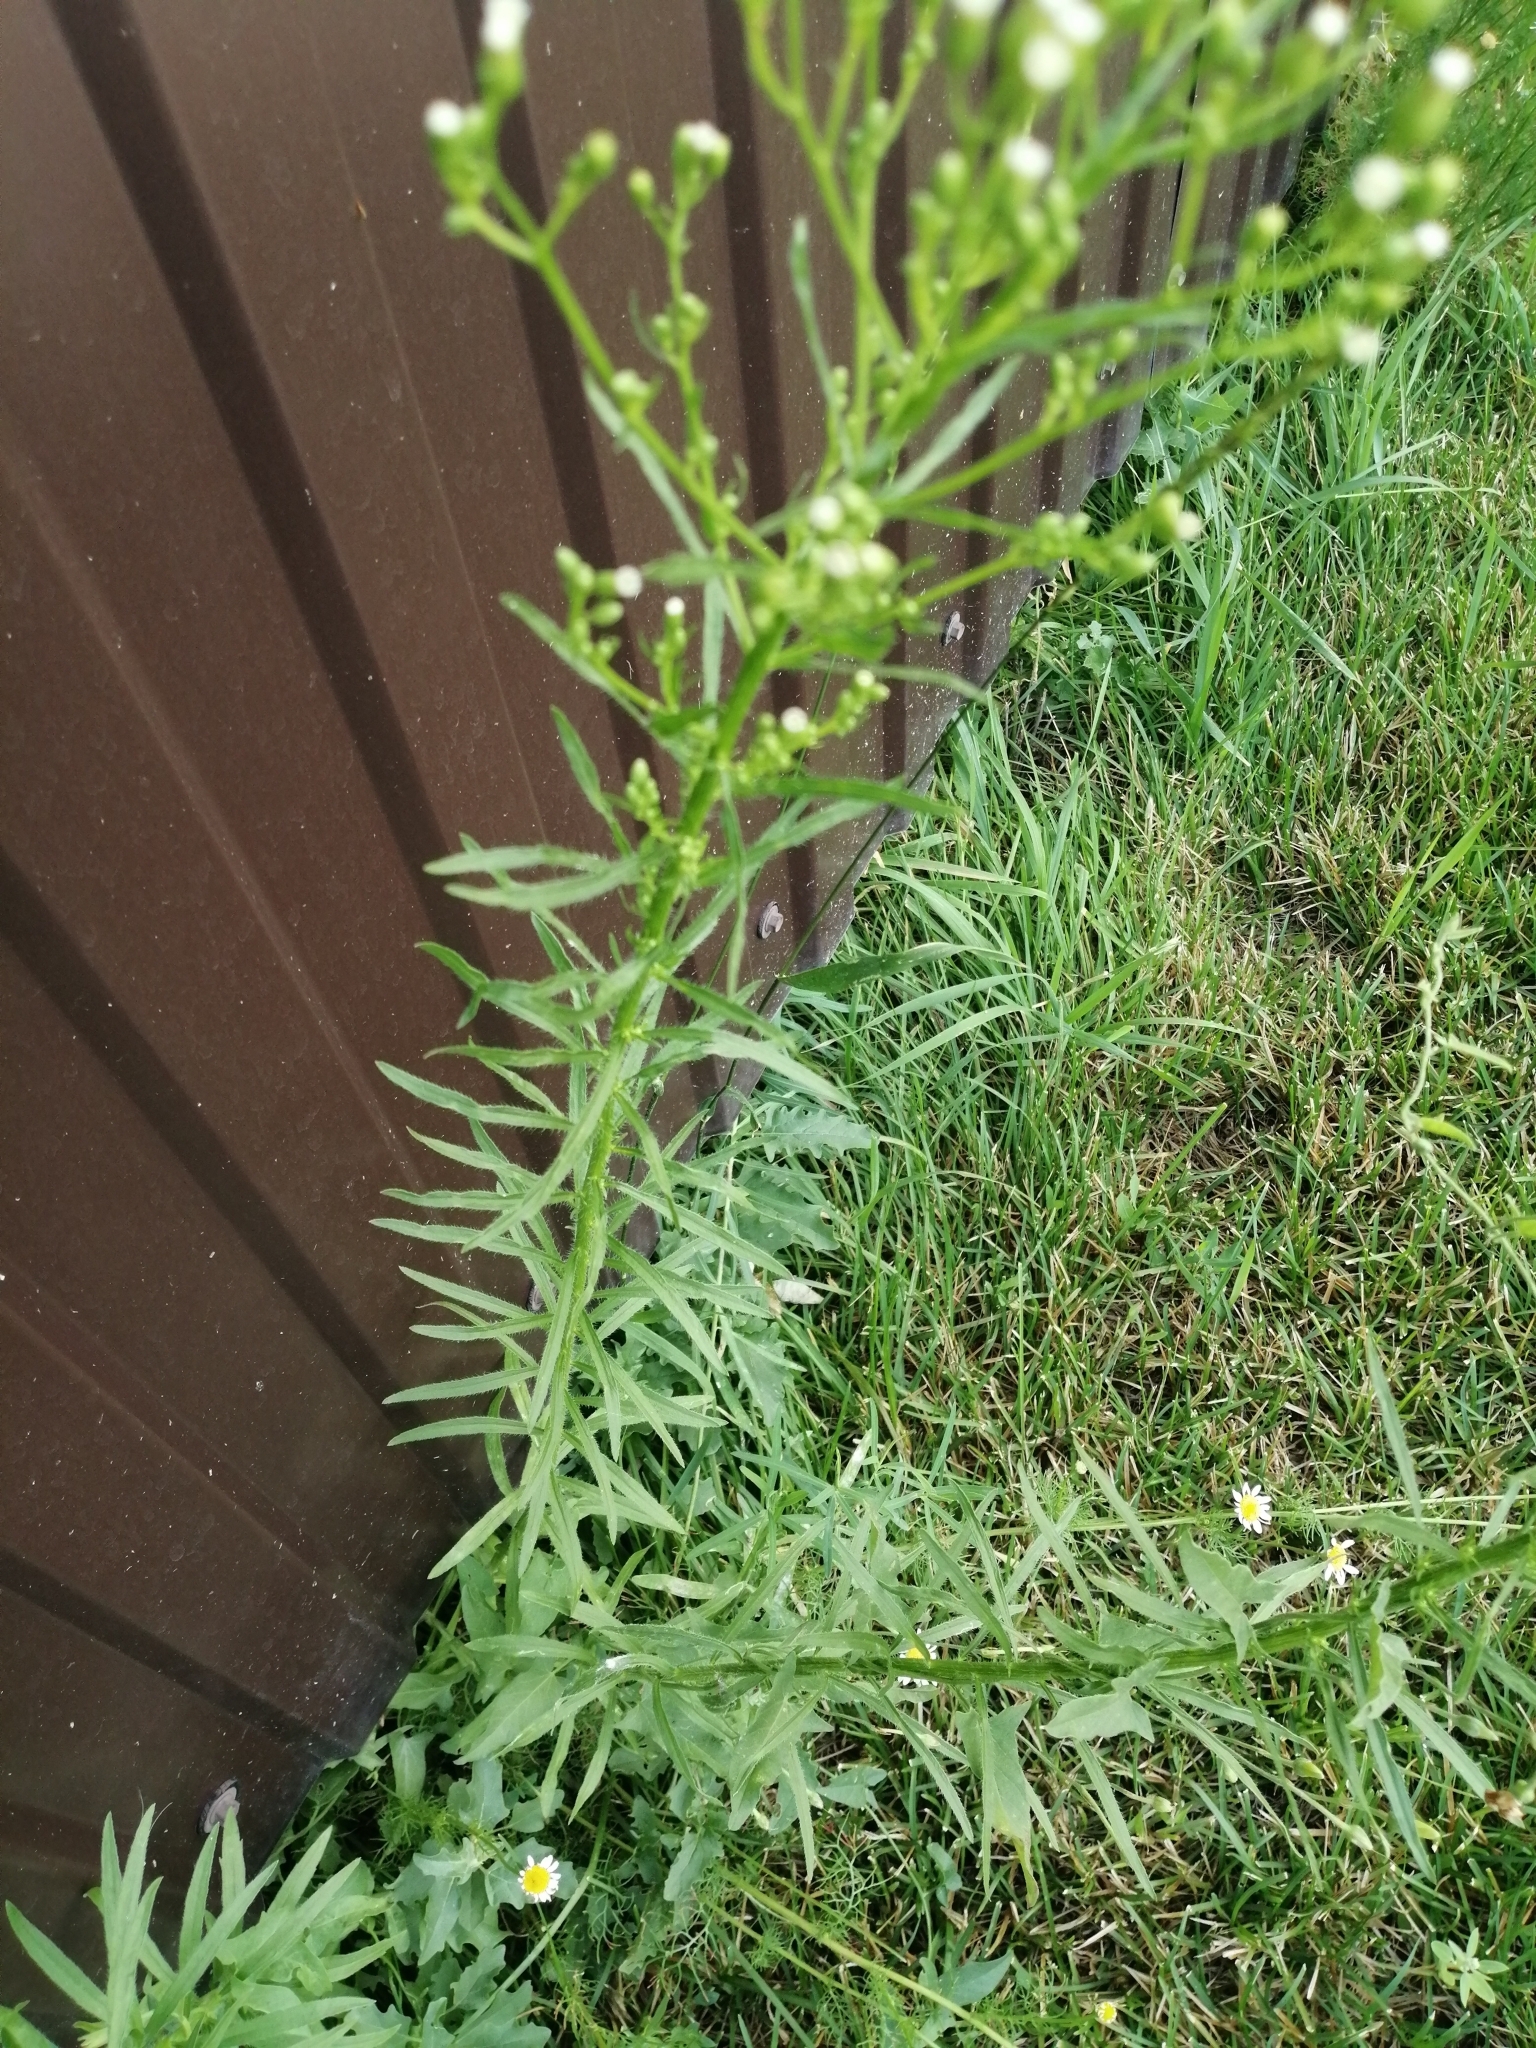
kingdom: Plantae
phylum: Tracheophyta
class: Magnoliopsida
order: Asterales
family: Asteraceae
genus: Erigeron
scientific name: Erigeron canadensis
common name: Canadian fleabane
